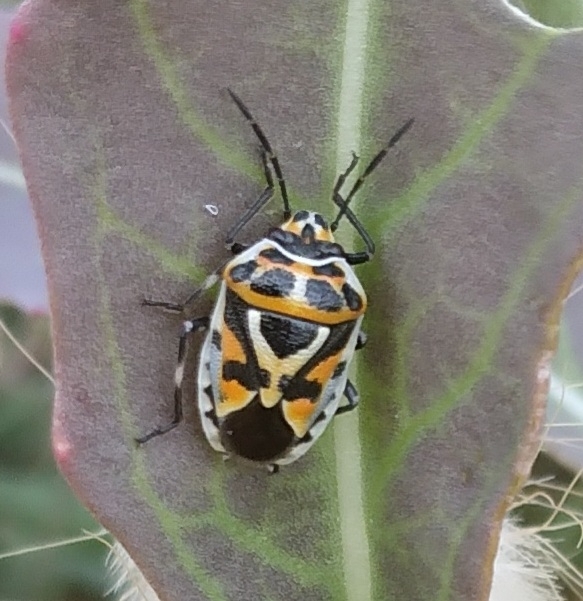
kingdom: Animalia
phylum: Arthropoda
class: Insecta
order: Hemiptera
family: Pentatomidae
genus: Eurydema
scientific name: Eurydema ornata
